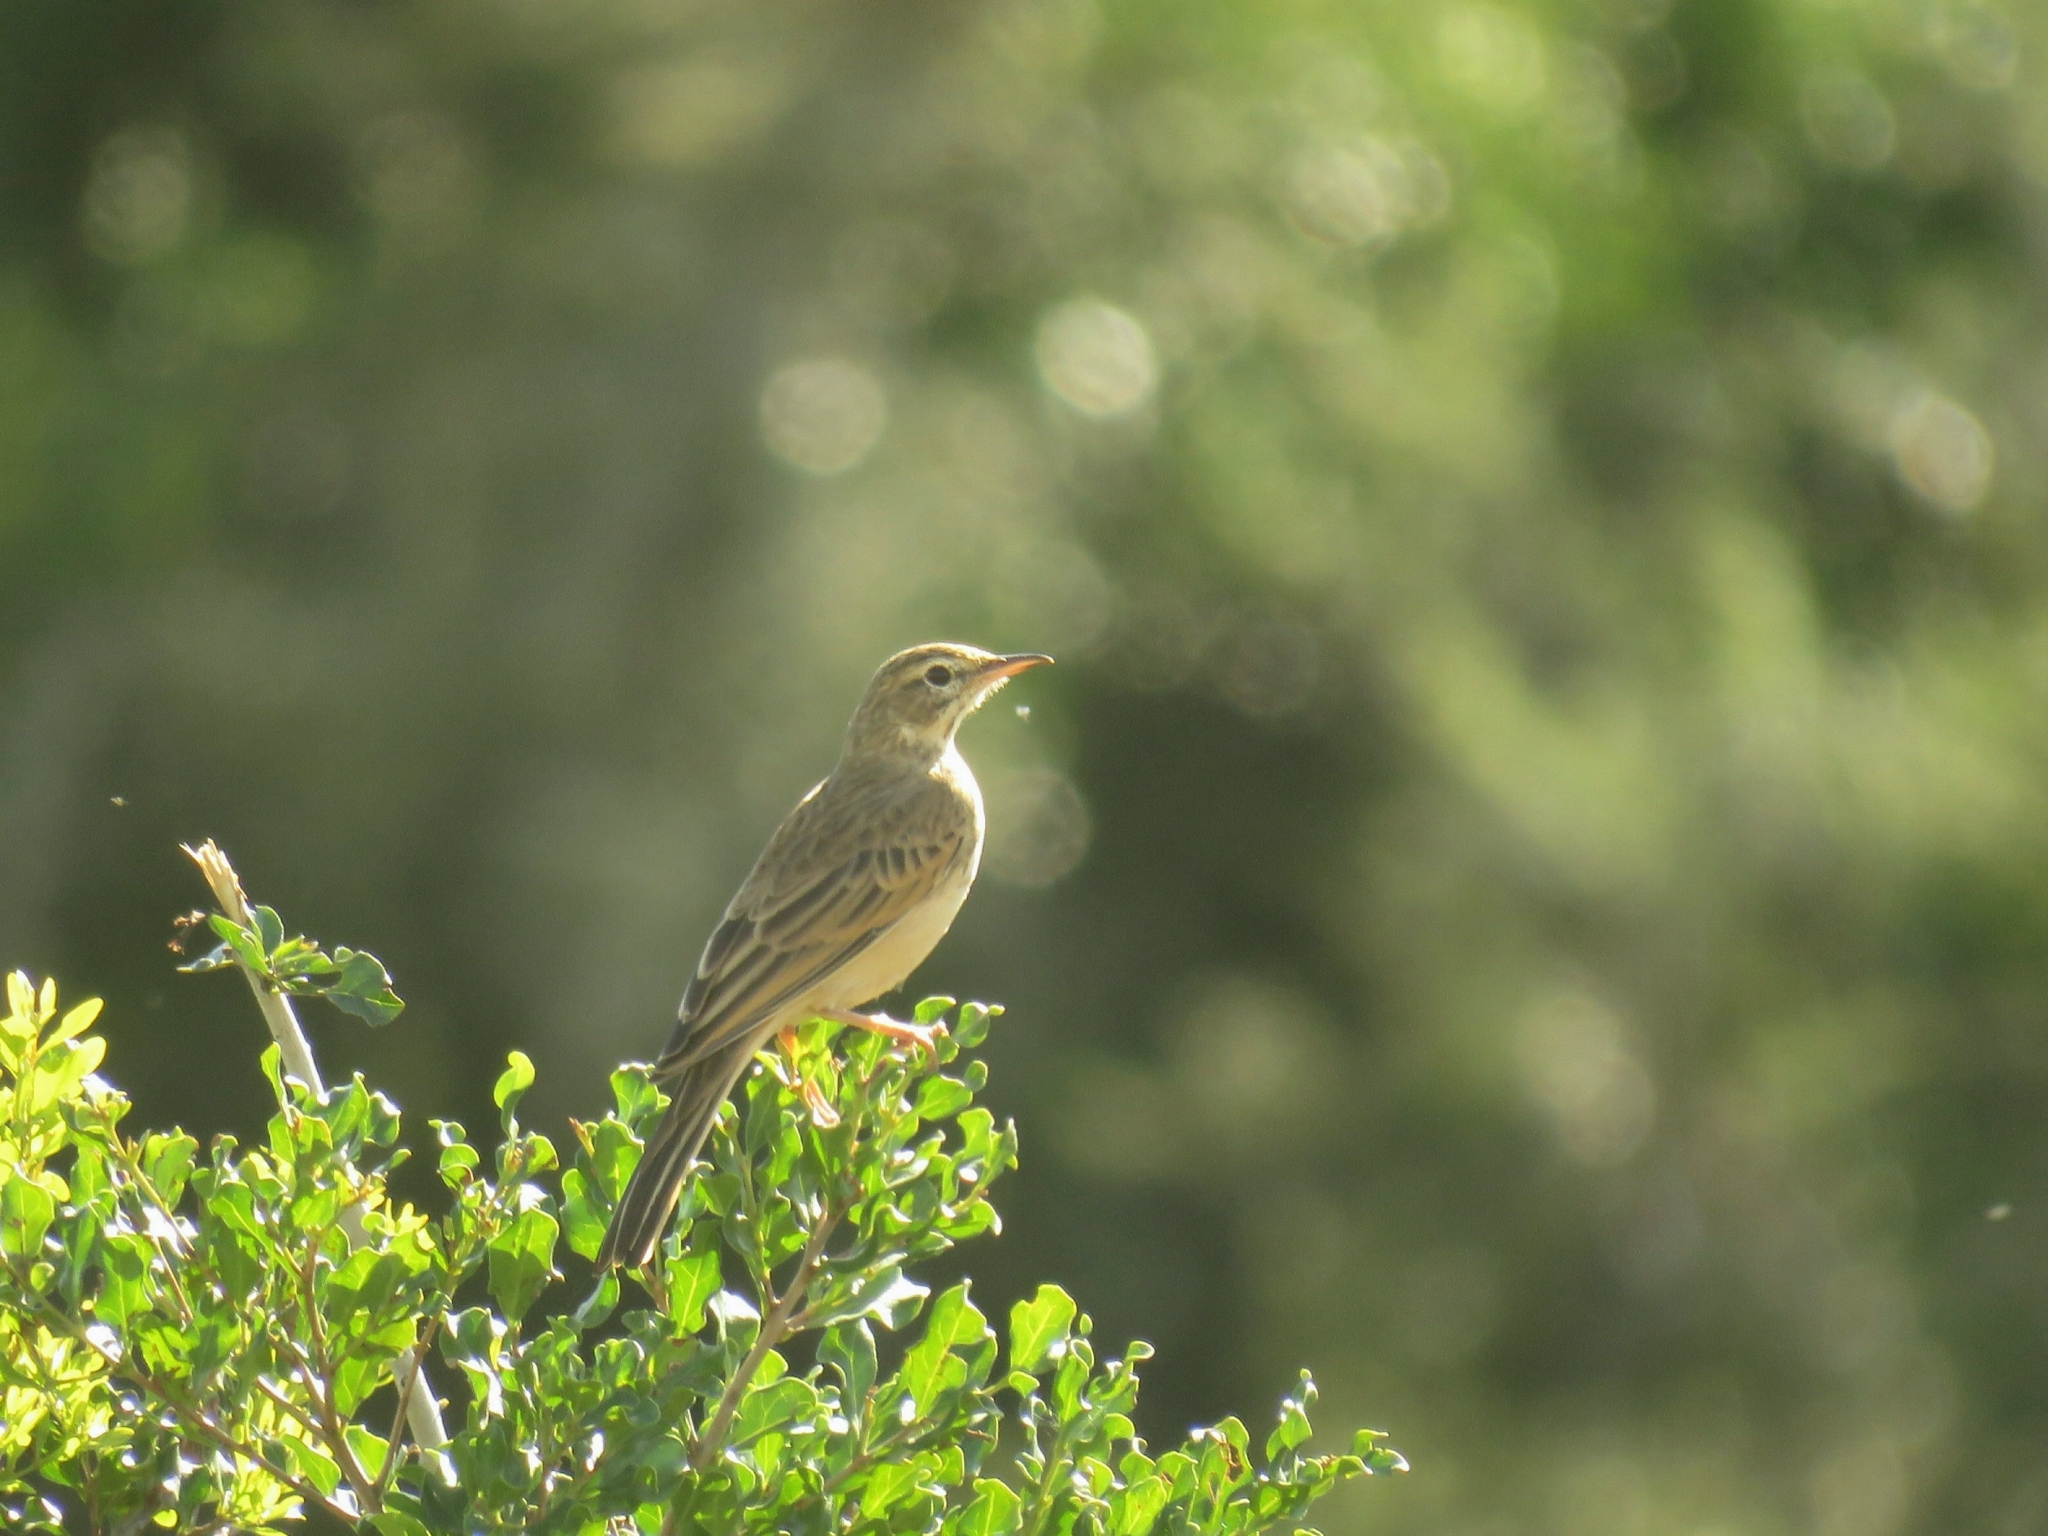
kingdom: Animalia
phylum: Chordata
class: Aves
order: Passeriformes
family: Motacillidae
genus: Anthus
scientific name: Anthus cinnamomeus
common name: African pipit
